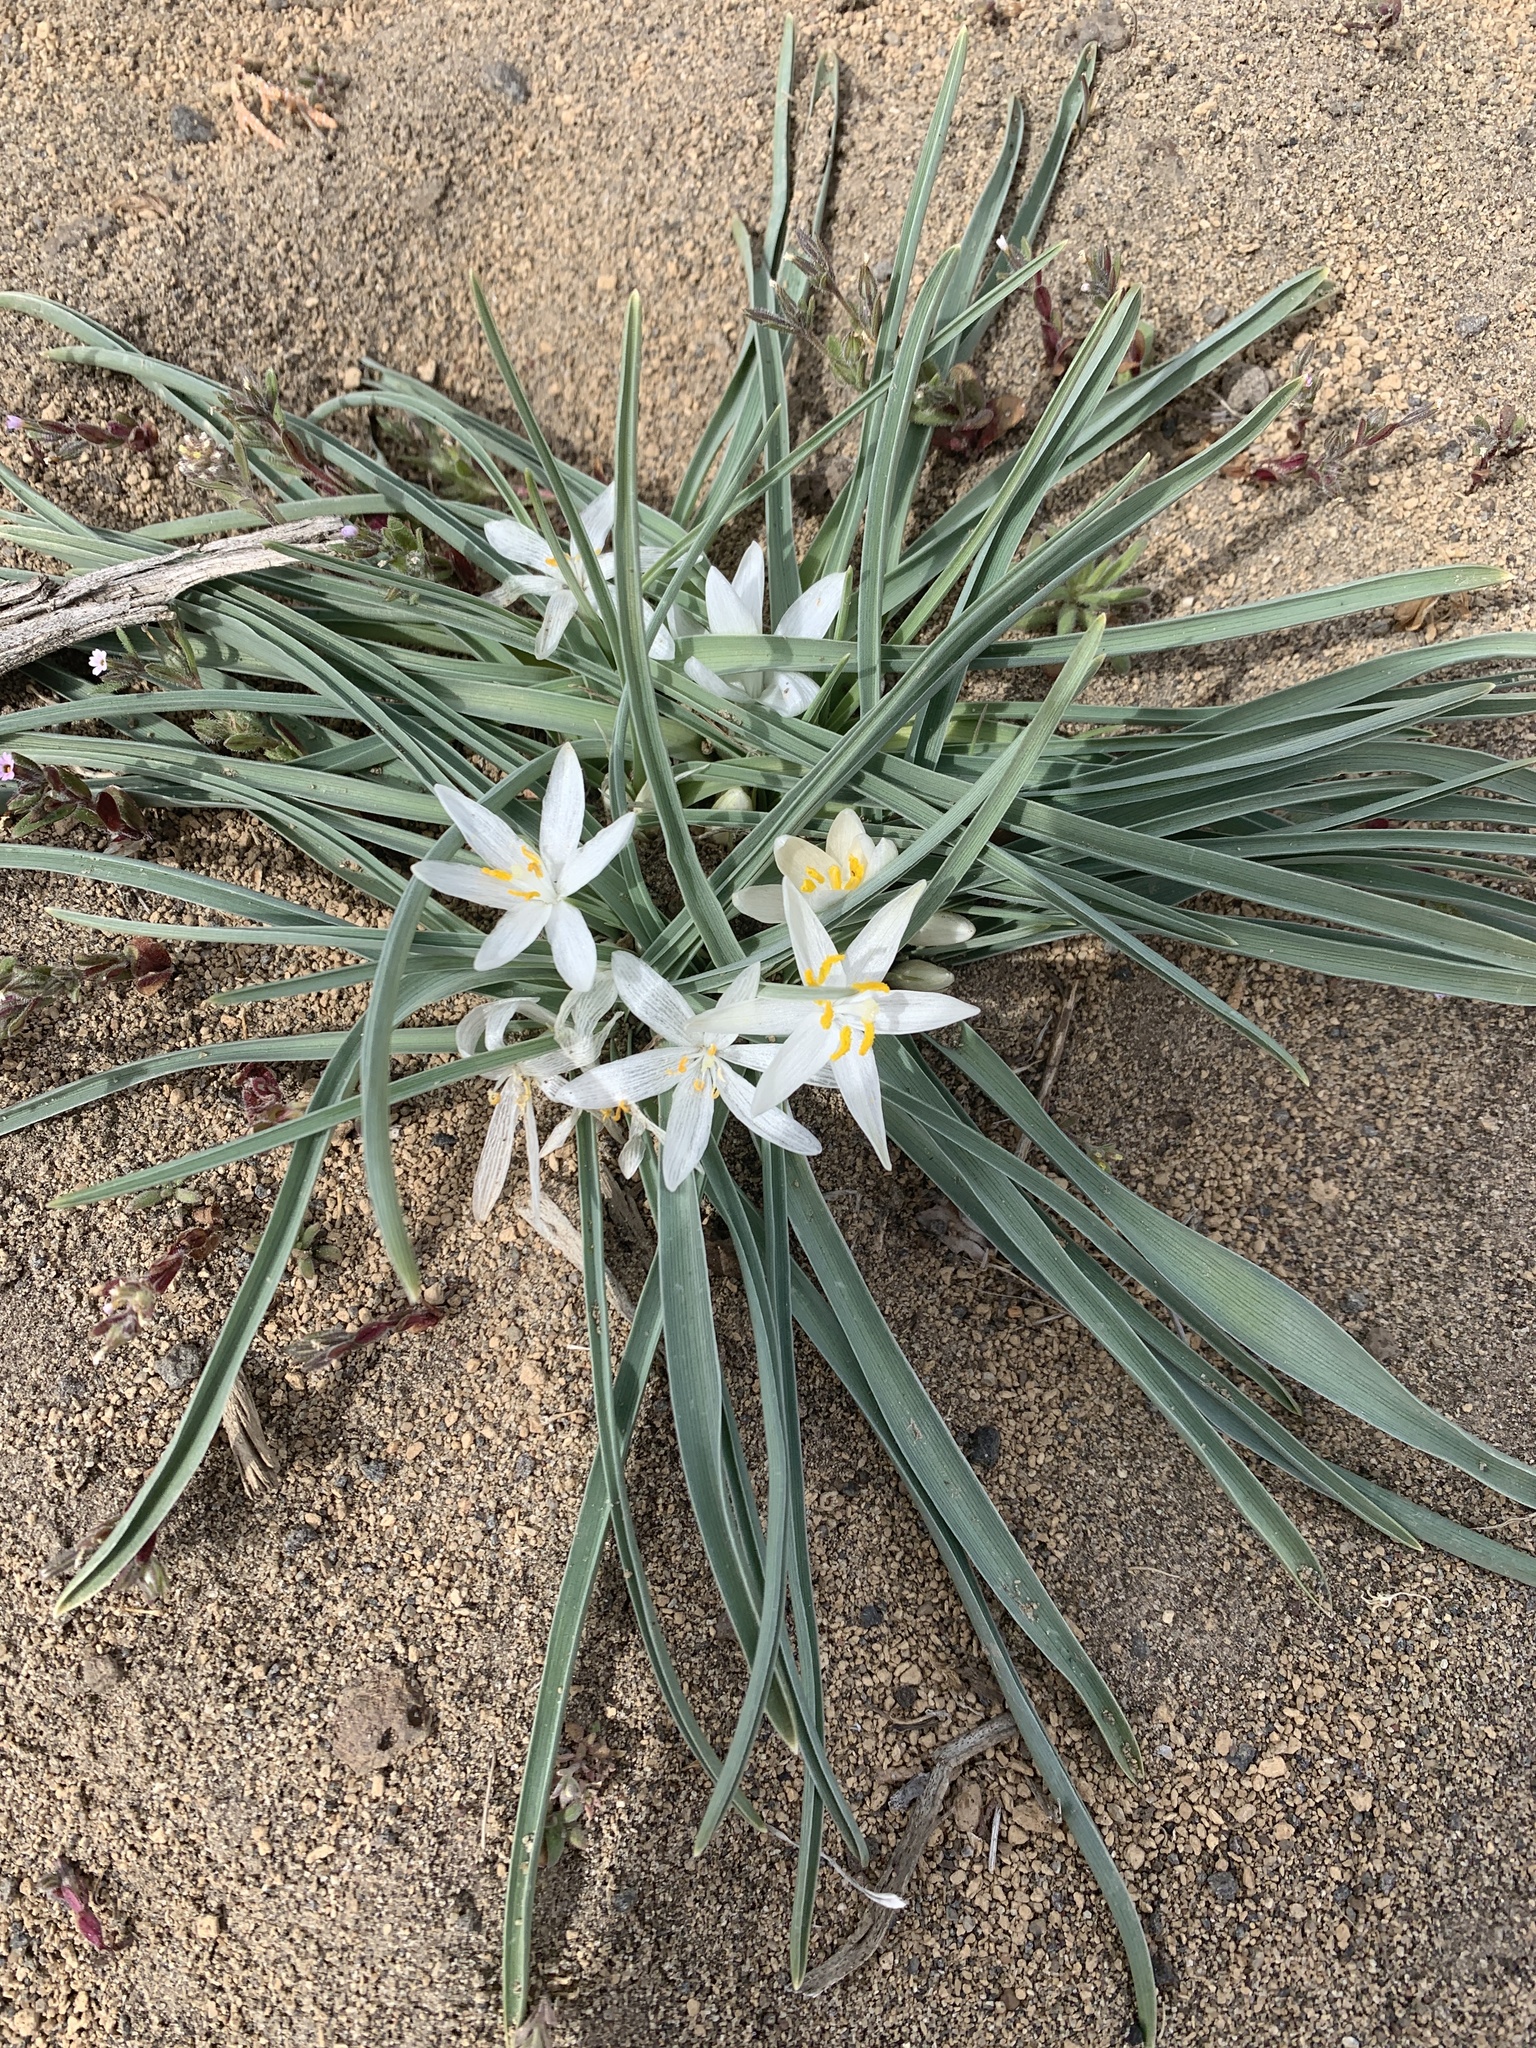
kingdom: Plantae
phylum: Tracheophyta
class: Liliopsida
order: Asparagales
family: Asparagaceae
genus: Leucocrinum
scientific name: Leucocrinum montanum
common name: Mountain-lily
